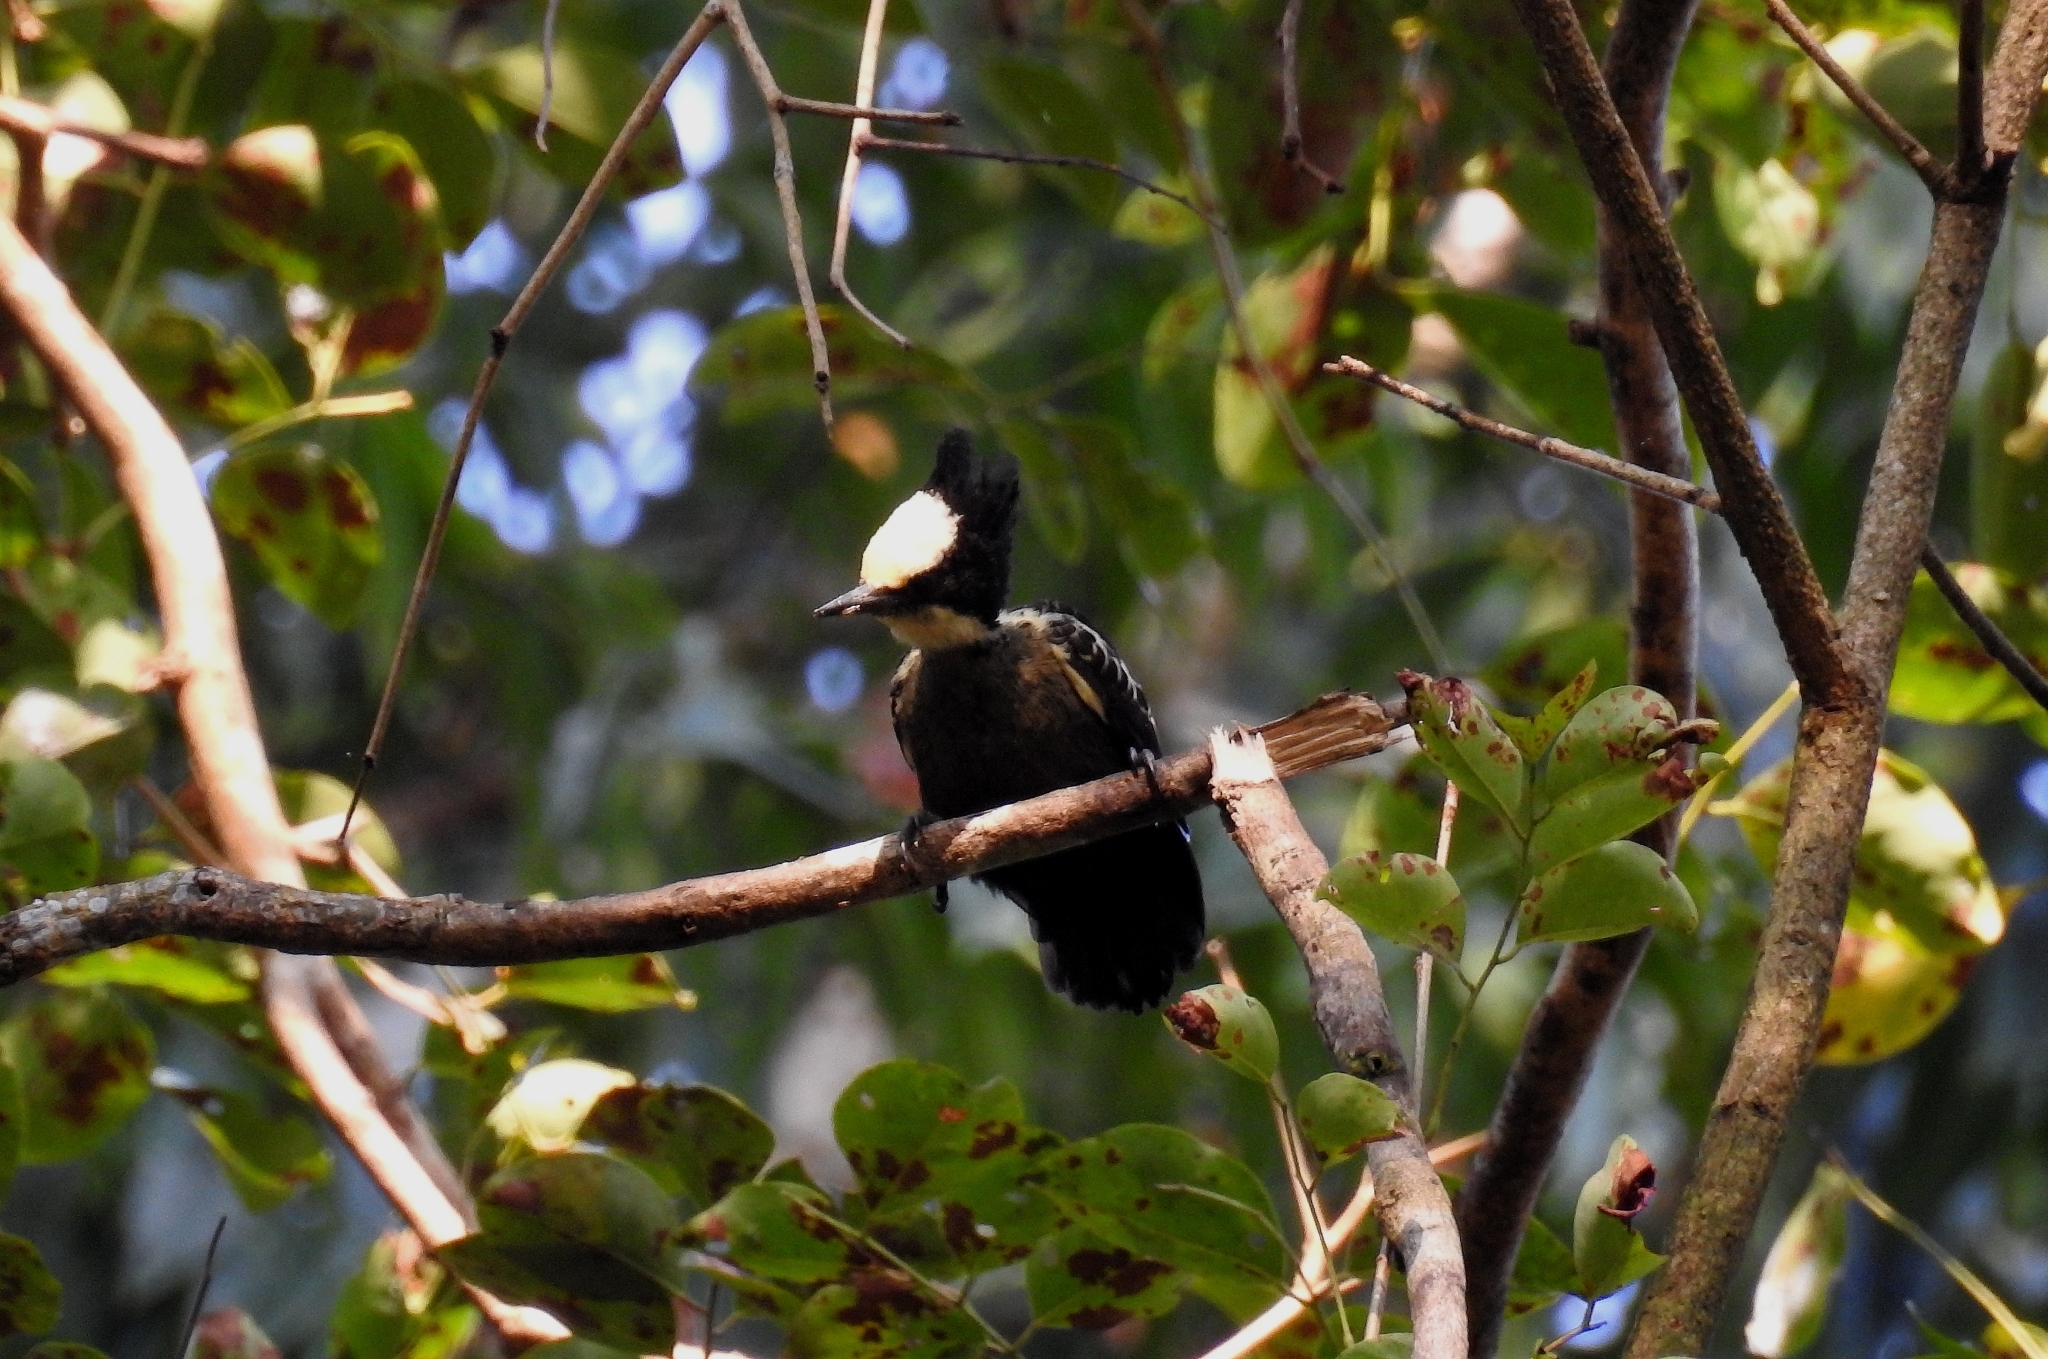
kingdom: Animalia
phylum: Chordata
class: Aves
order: Piciformes
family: Picidae
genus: Hemicircus
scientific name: Hemicircus canente
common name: Heart-spotted woodpecker
